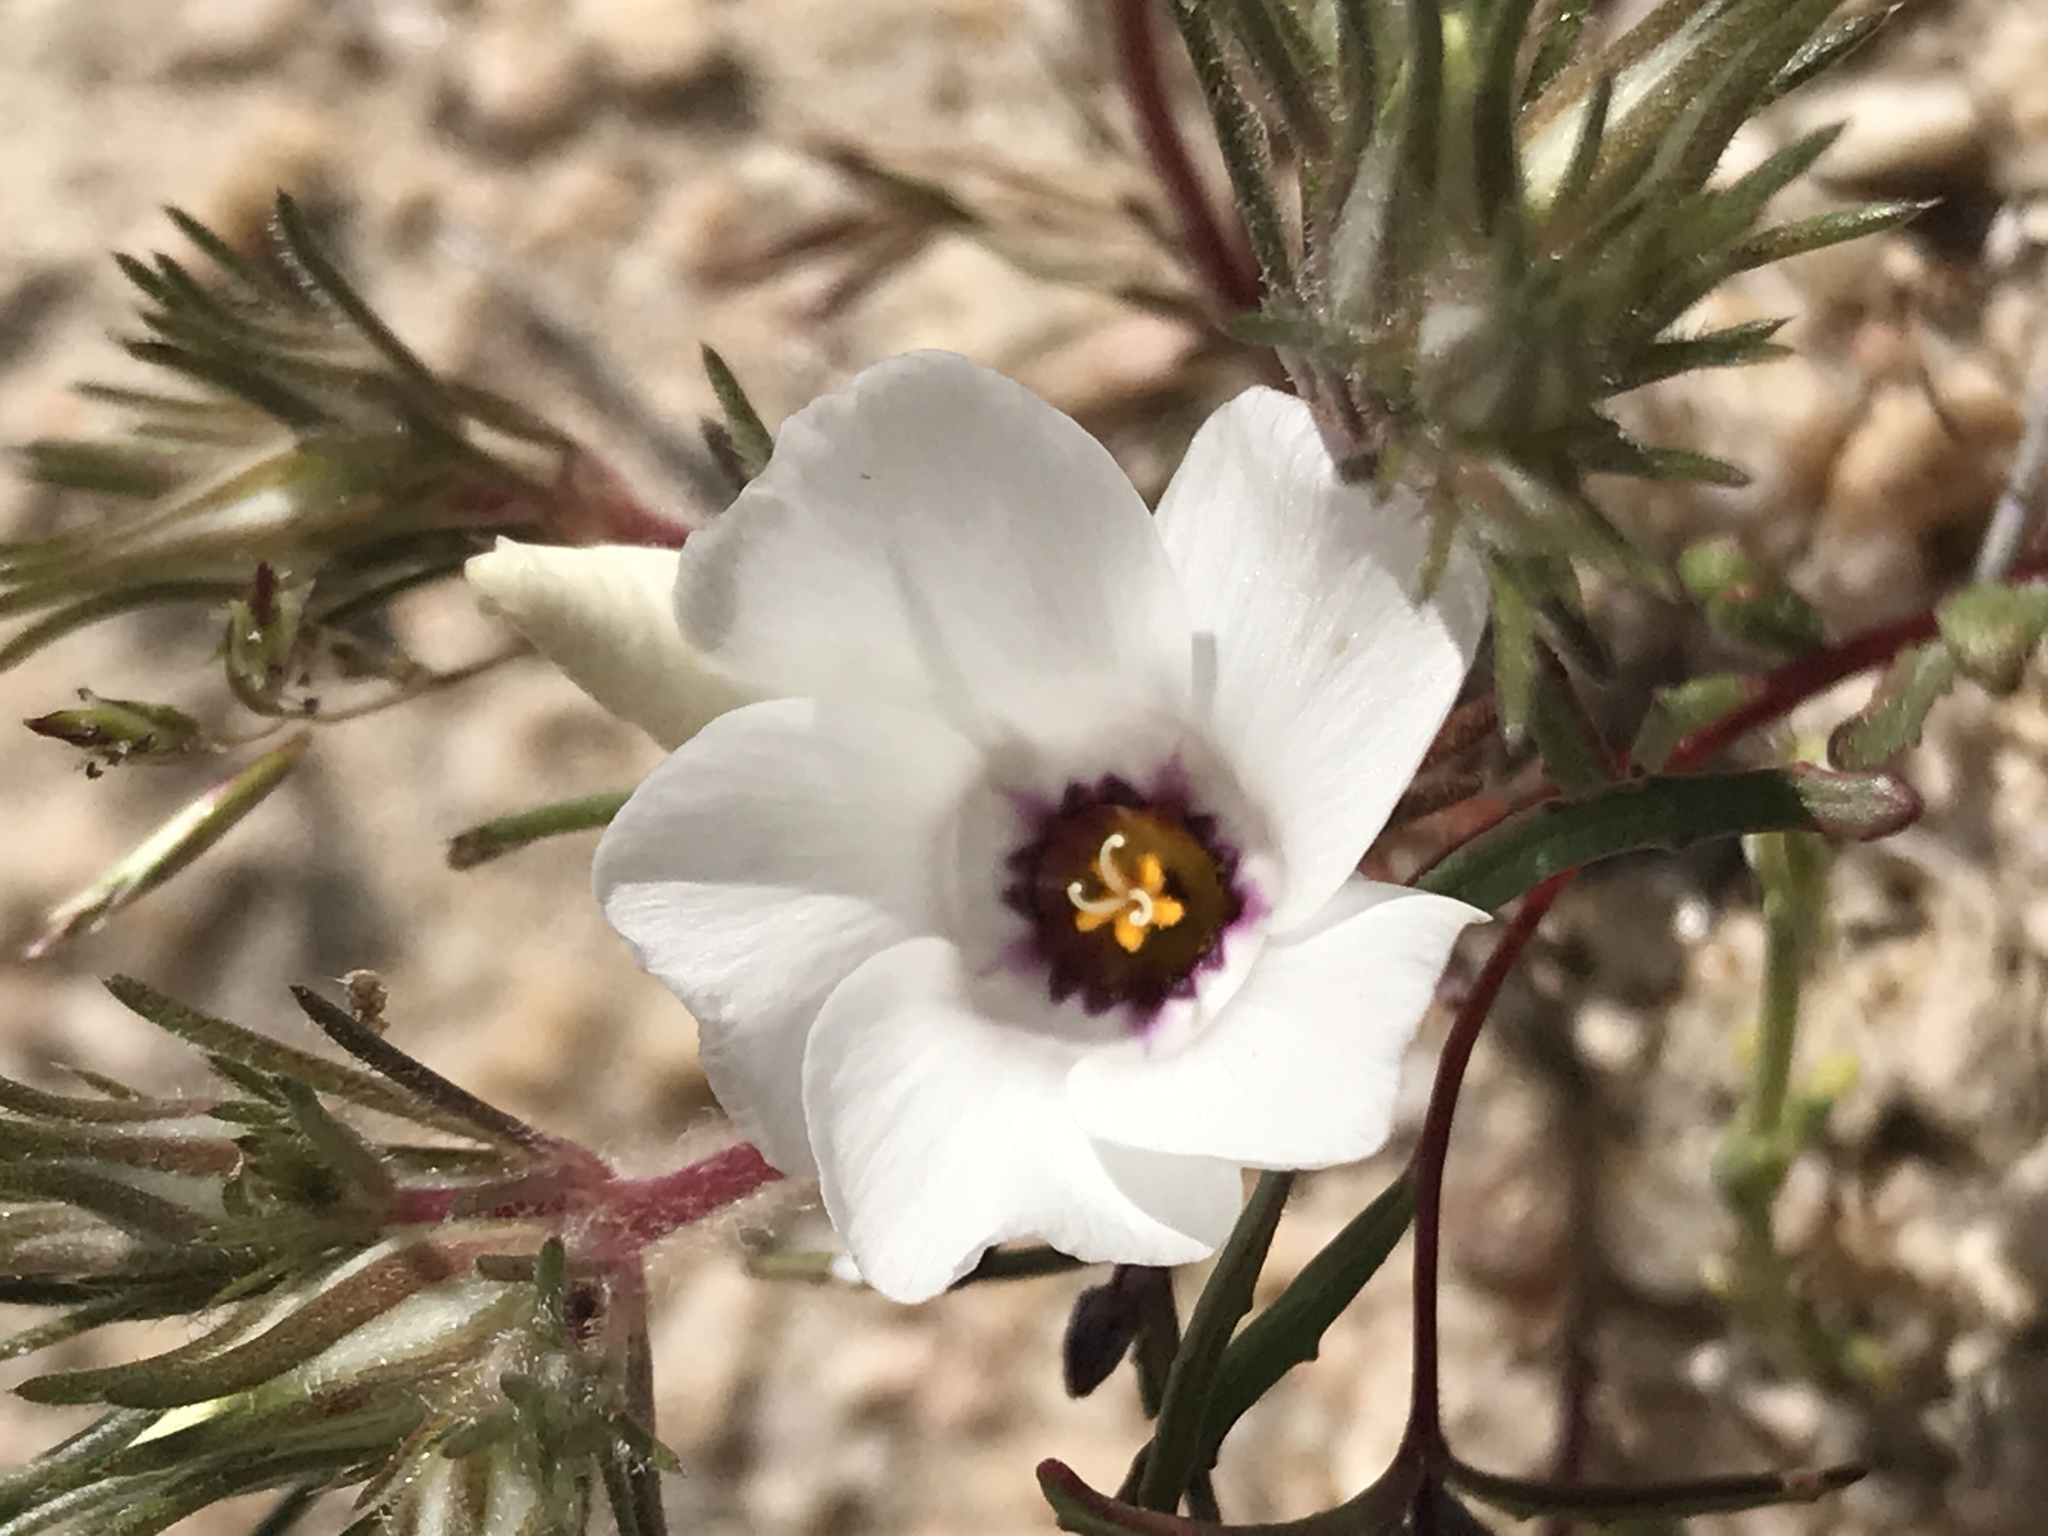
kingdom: Plantae
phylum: Tracheophyta
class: Magnoliopsida
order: Ericales
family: Polemoniaceae
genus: Linanthus
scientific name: Linanthus parryae
